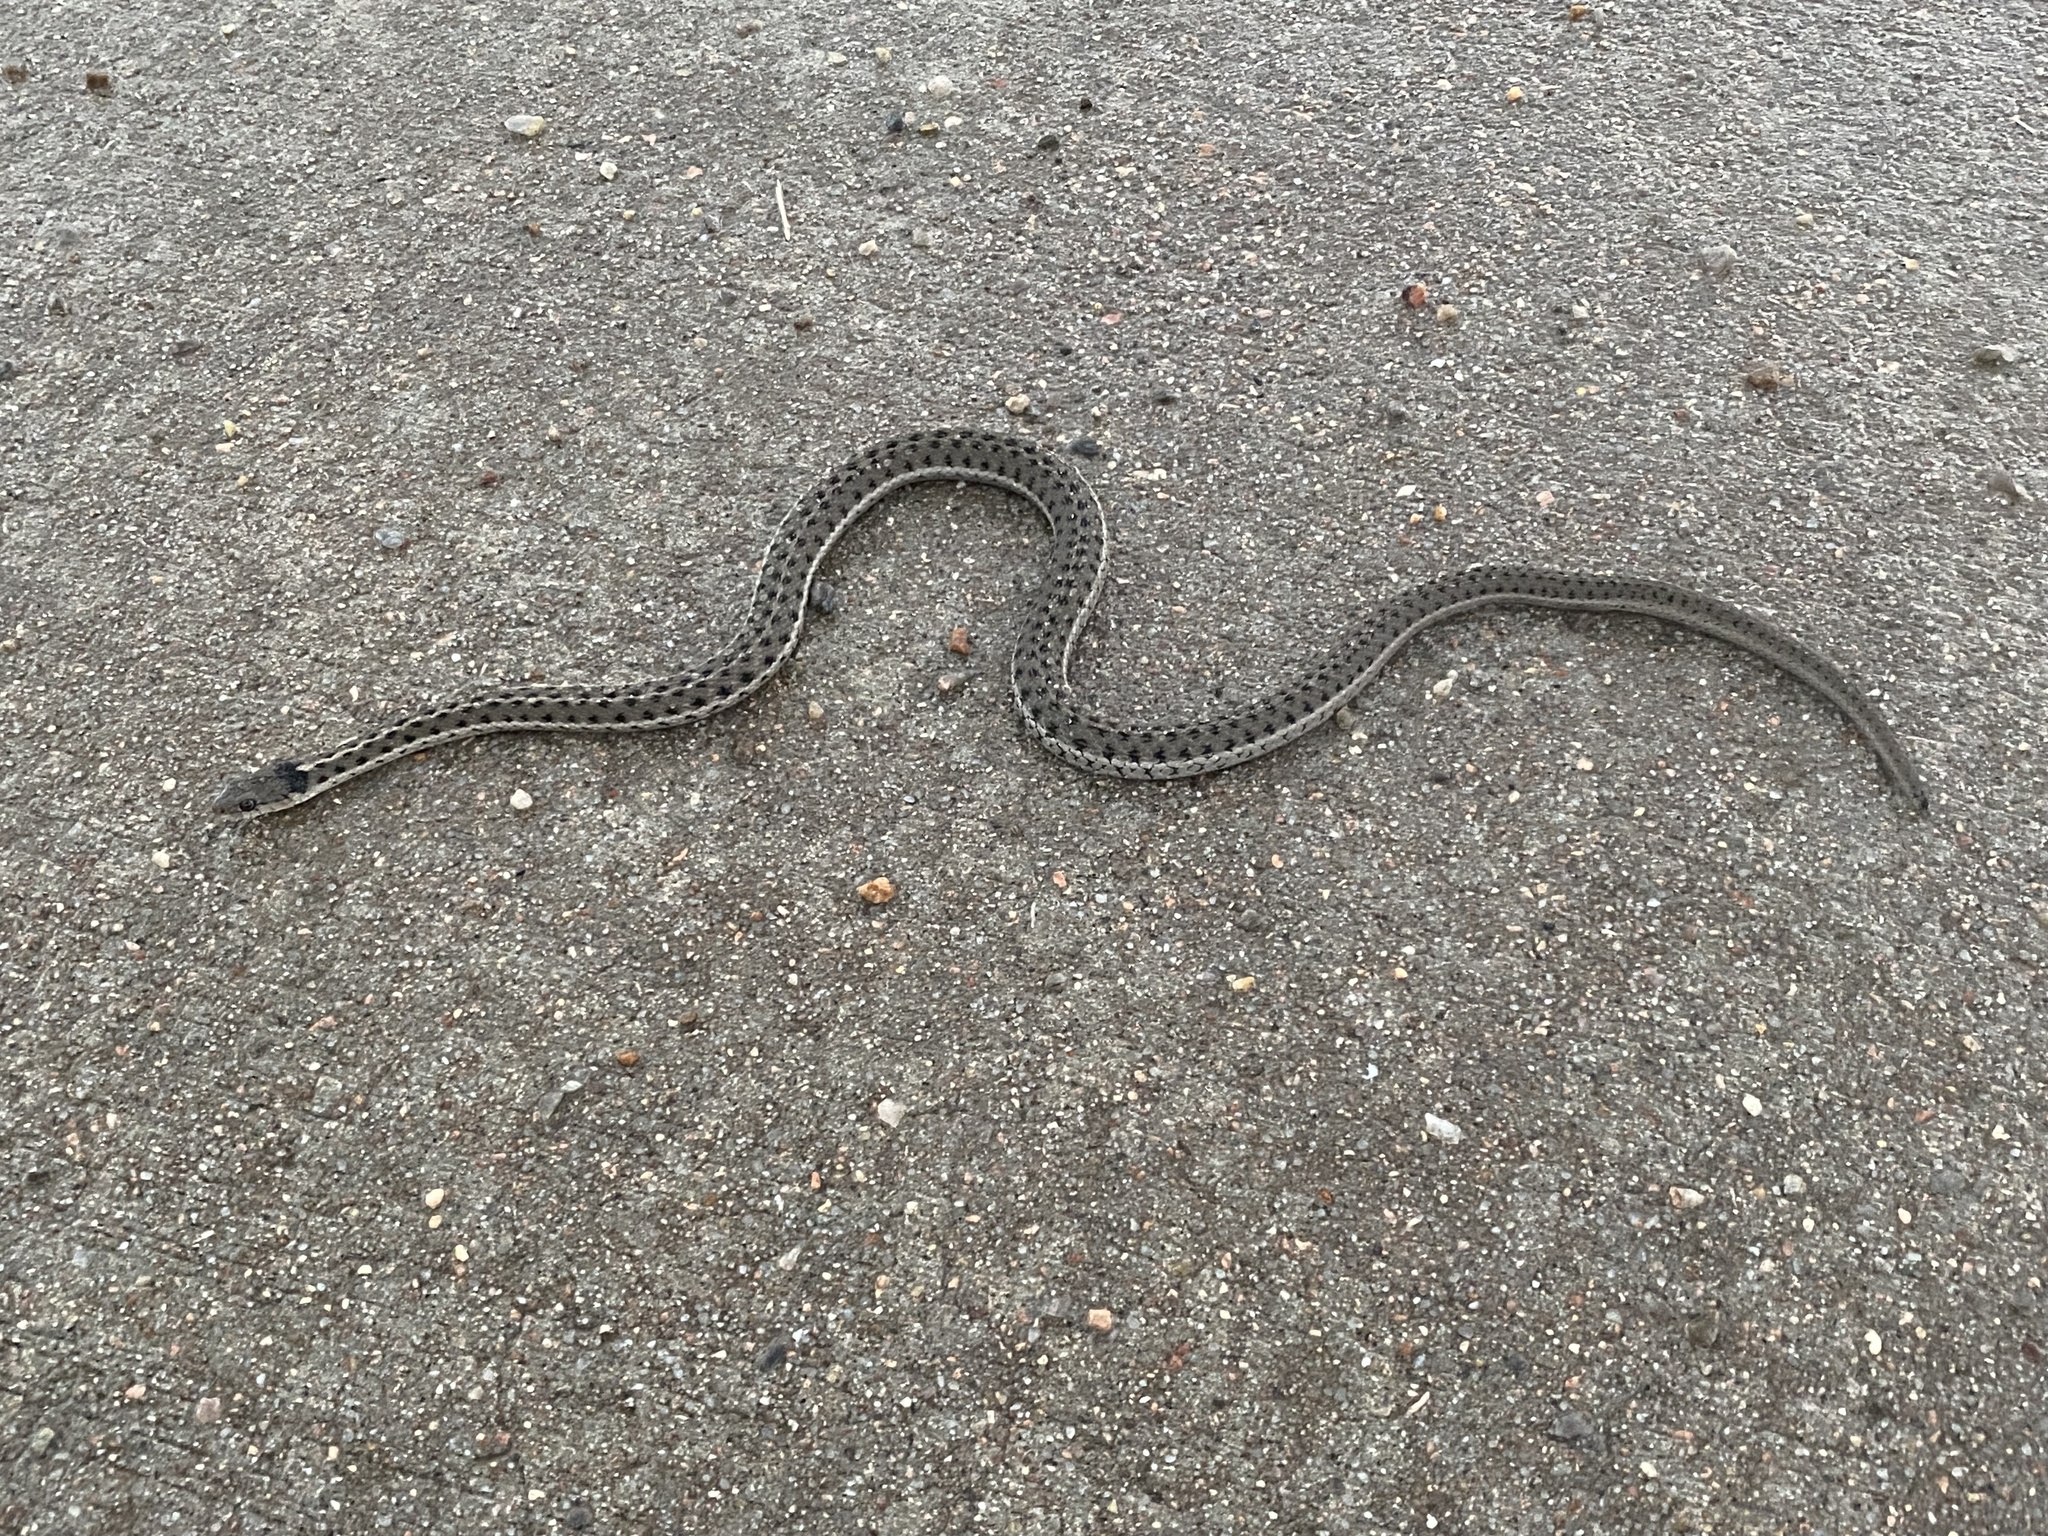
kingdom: Animalia
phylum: Chordata
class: Squamata
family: Colubridae
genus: Thamnophis
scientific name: Thamnophis elegans
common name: Western terrestrial garter snake
